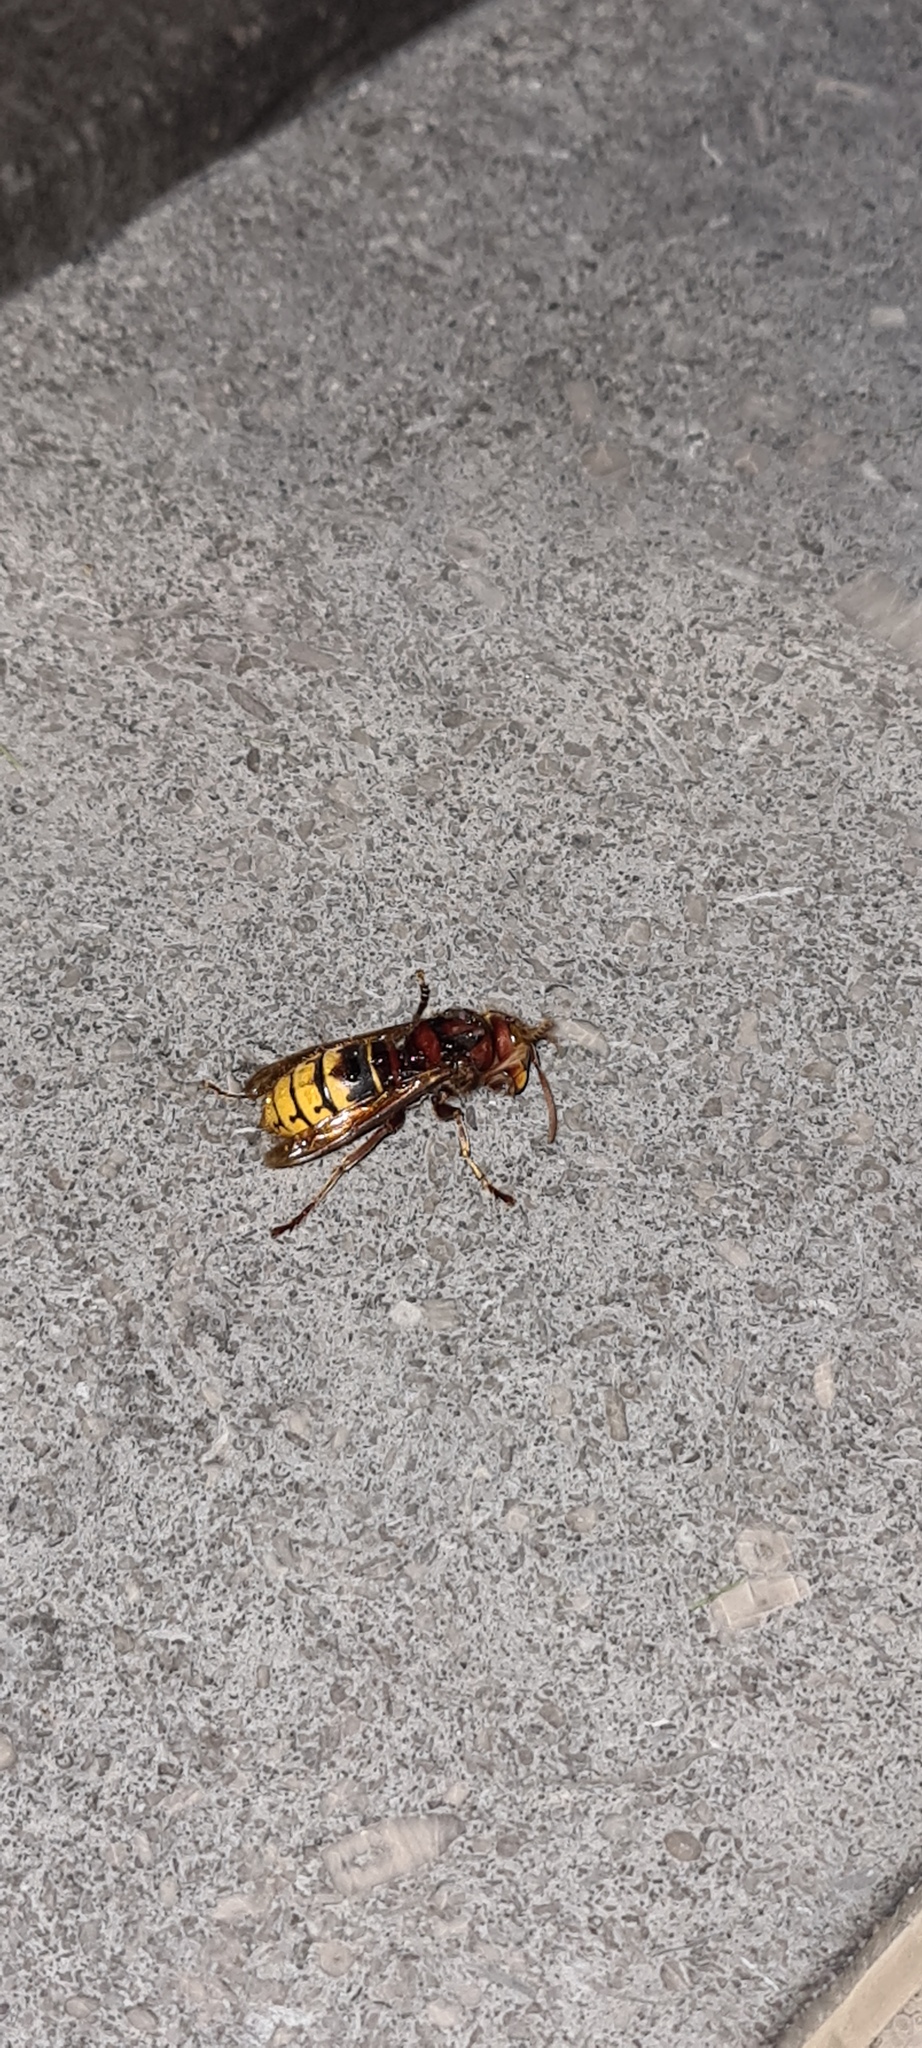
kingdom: Animalia
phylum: Arthropoda
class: Insecta
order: Hymenoptera
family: Vespidae
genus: Vespa
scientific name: Vespa crabro
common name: Hornet
